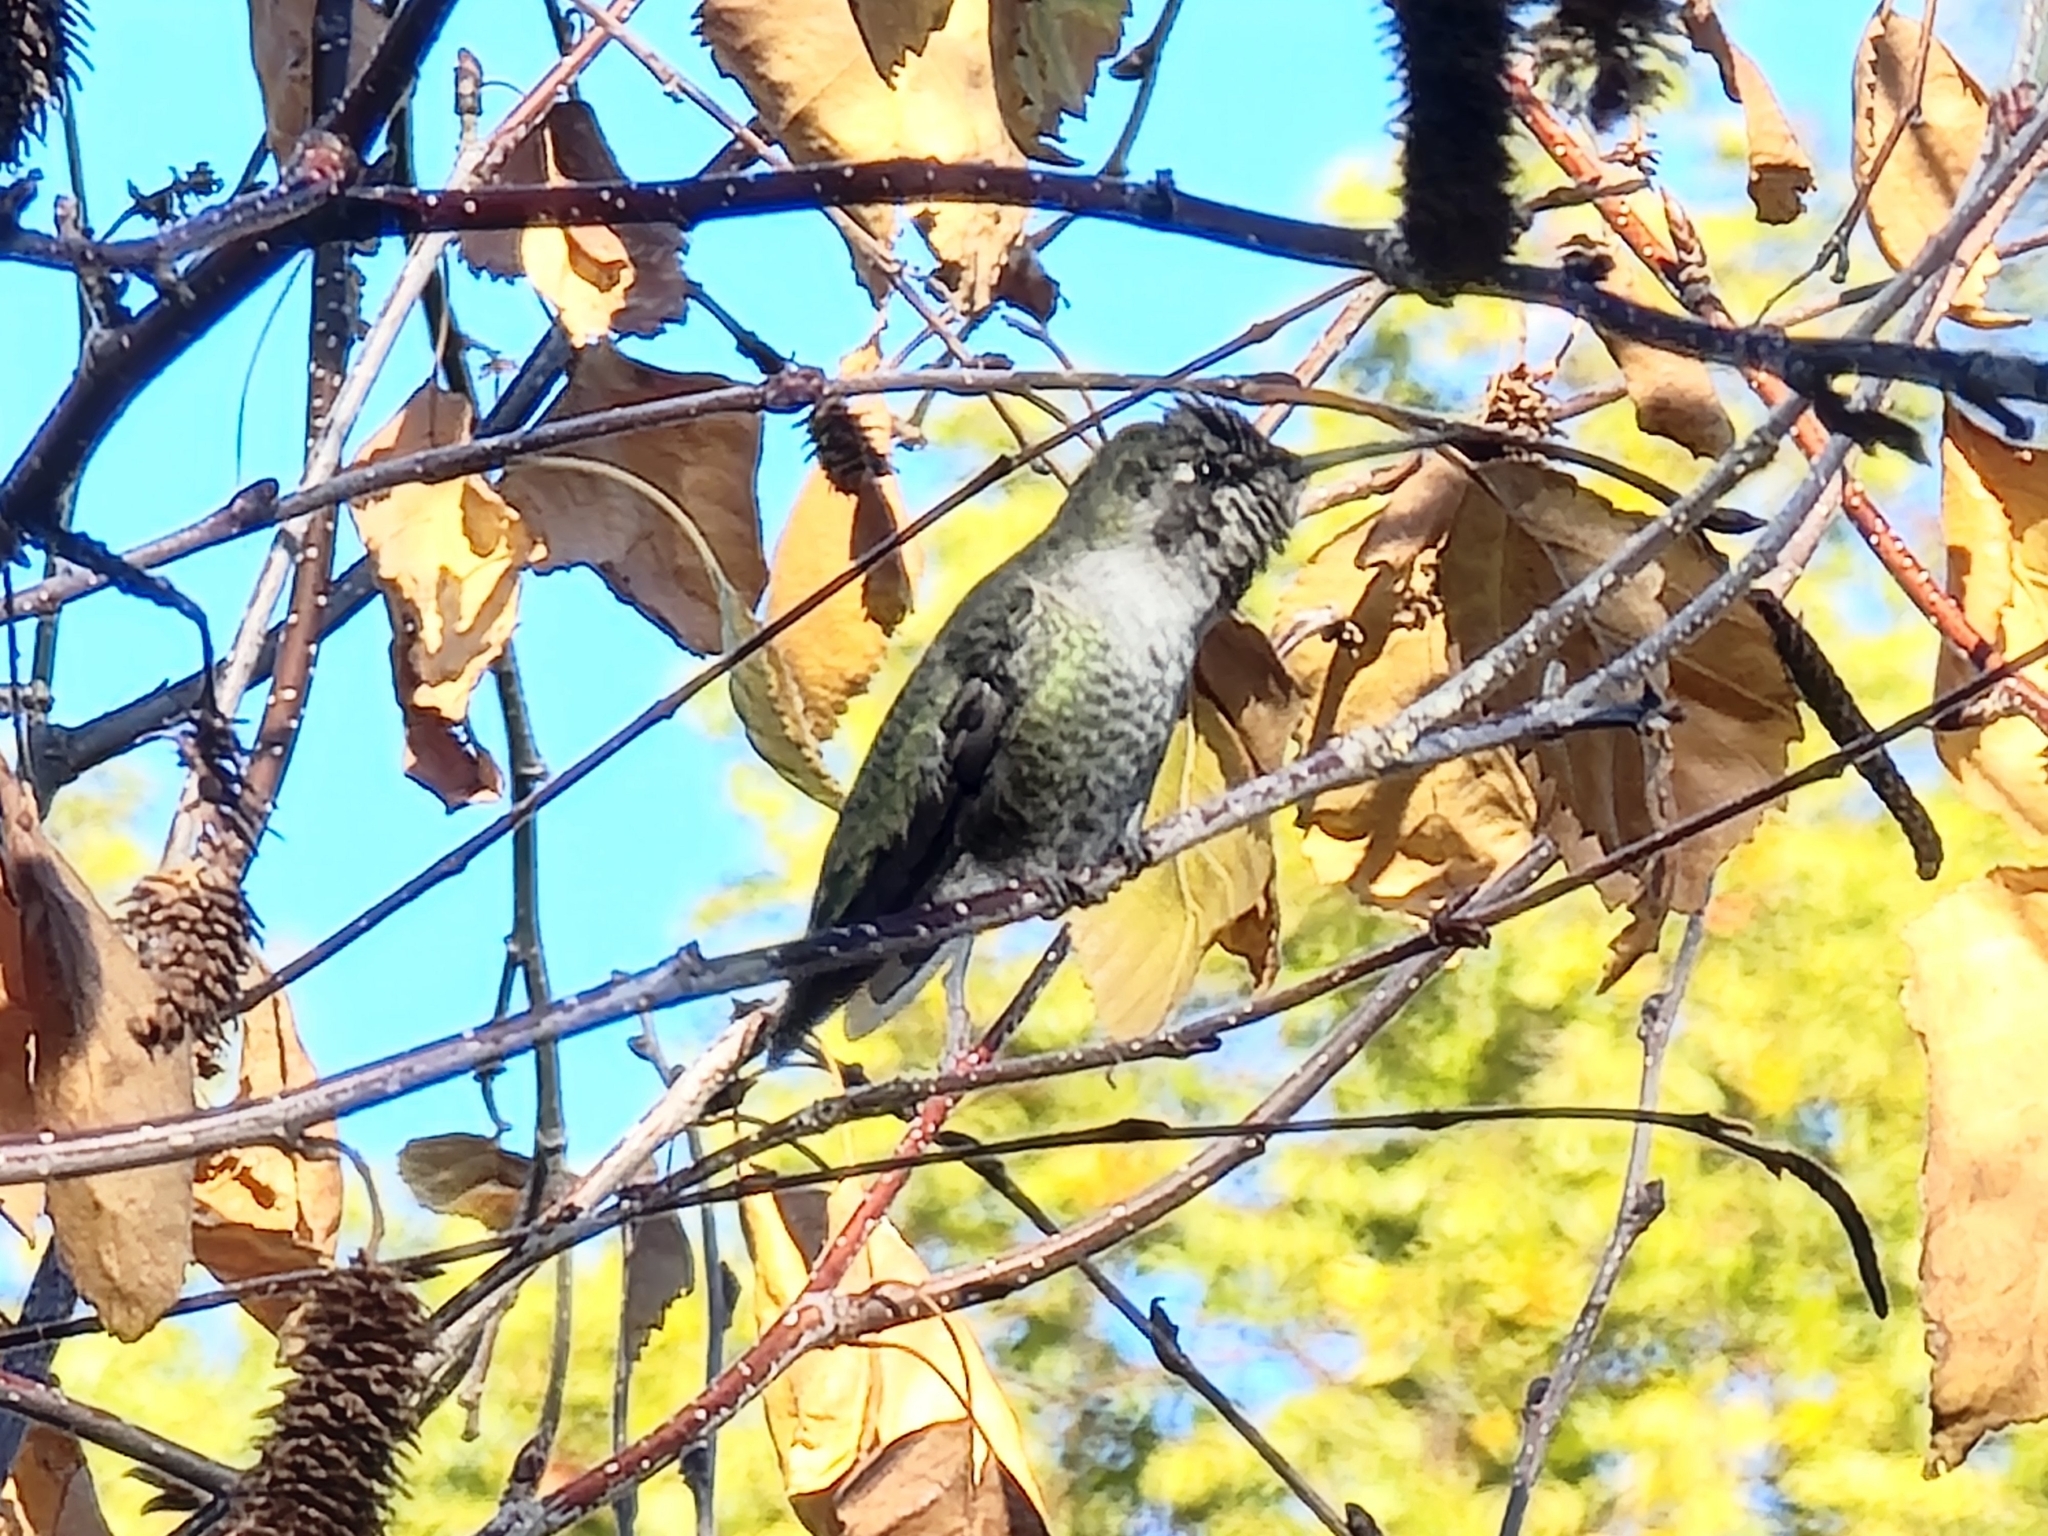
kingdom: Animalia
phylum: Chordata
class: Aves
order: Apodiformes
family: Trochilidae
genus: Calypte
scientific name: Calypte anna
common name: Anna's hummingbird
